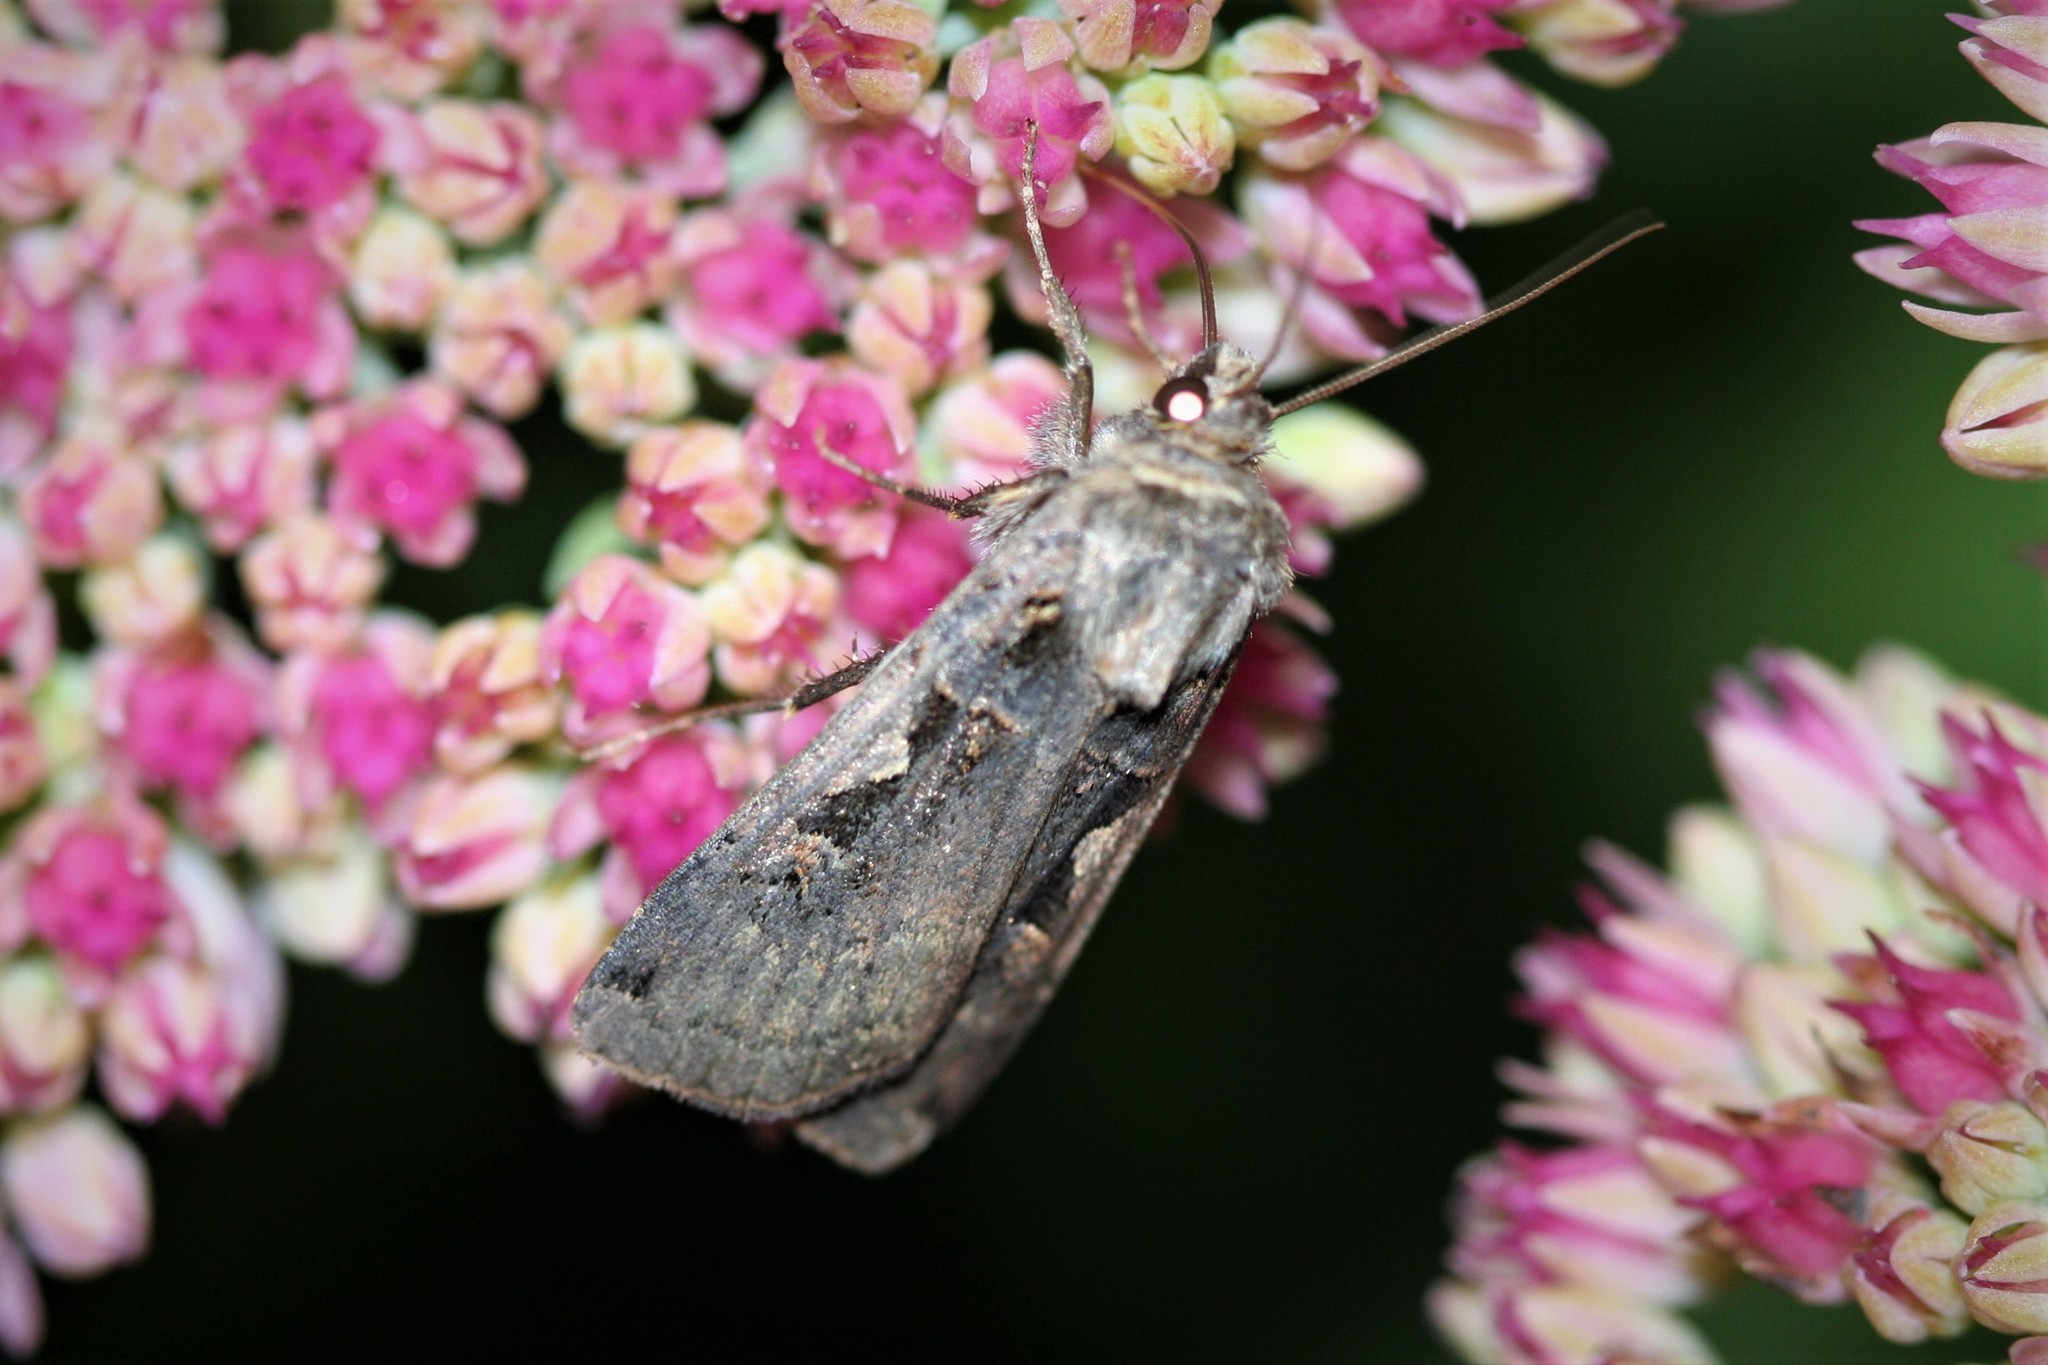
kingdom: Animalia
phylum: Arthropoda
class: Insecta
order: Lepidoptera
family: Noctuidae
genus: Xestia
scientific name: Xestia c-nigrum
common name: Setaceous hebrew character
